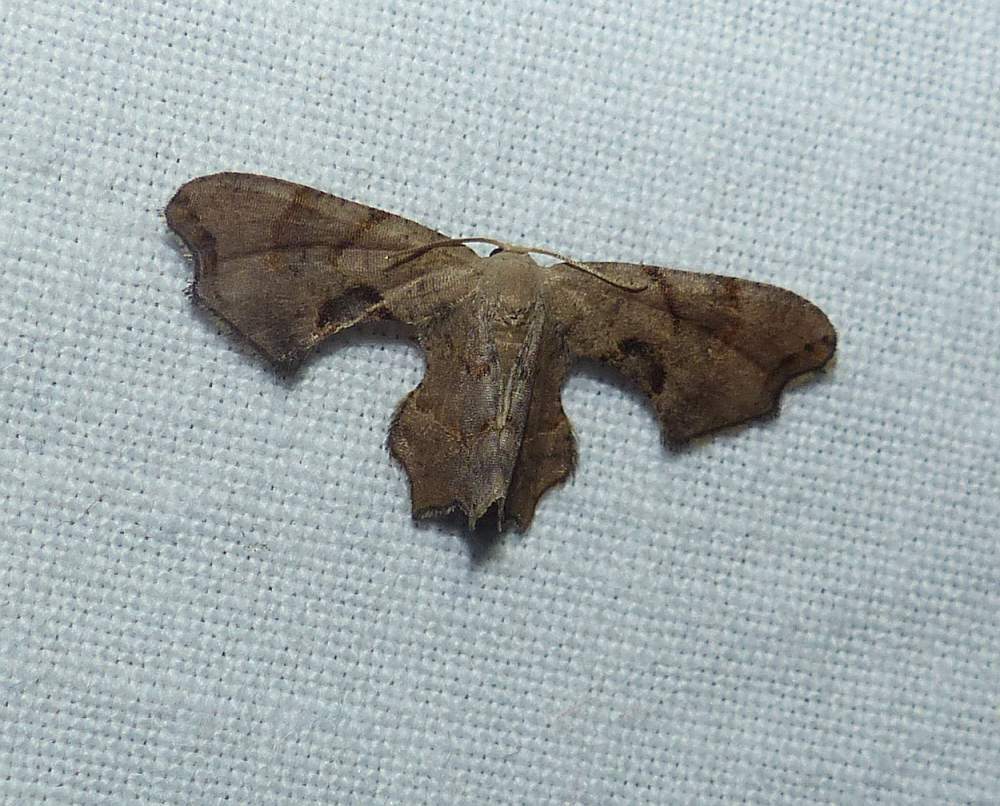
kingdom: Animalia
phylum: Arthropoda
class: Insecta
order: Lepidoptera
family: Uraniidae
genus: Epiplema
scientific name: Epiplema Calledapteryx dryopterata
